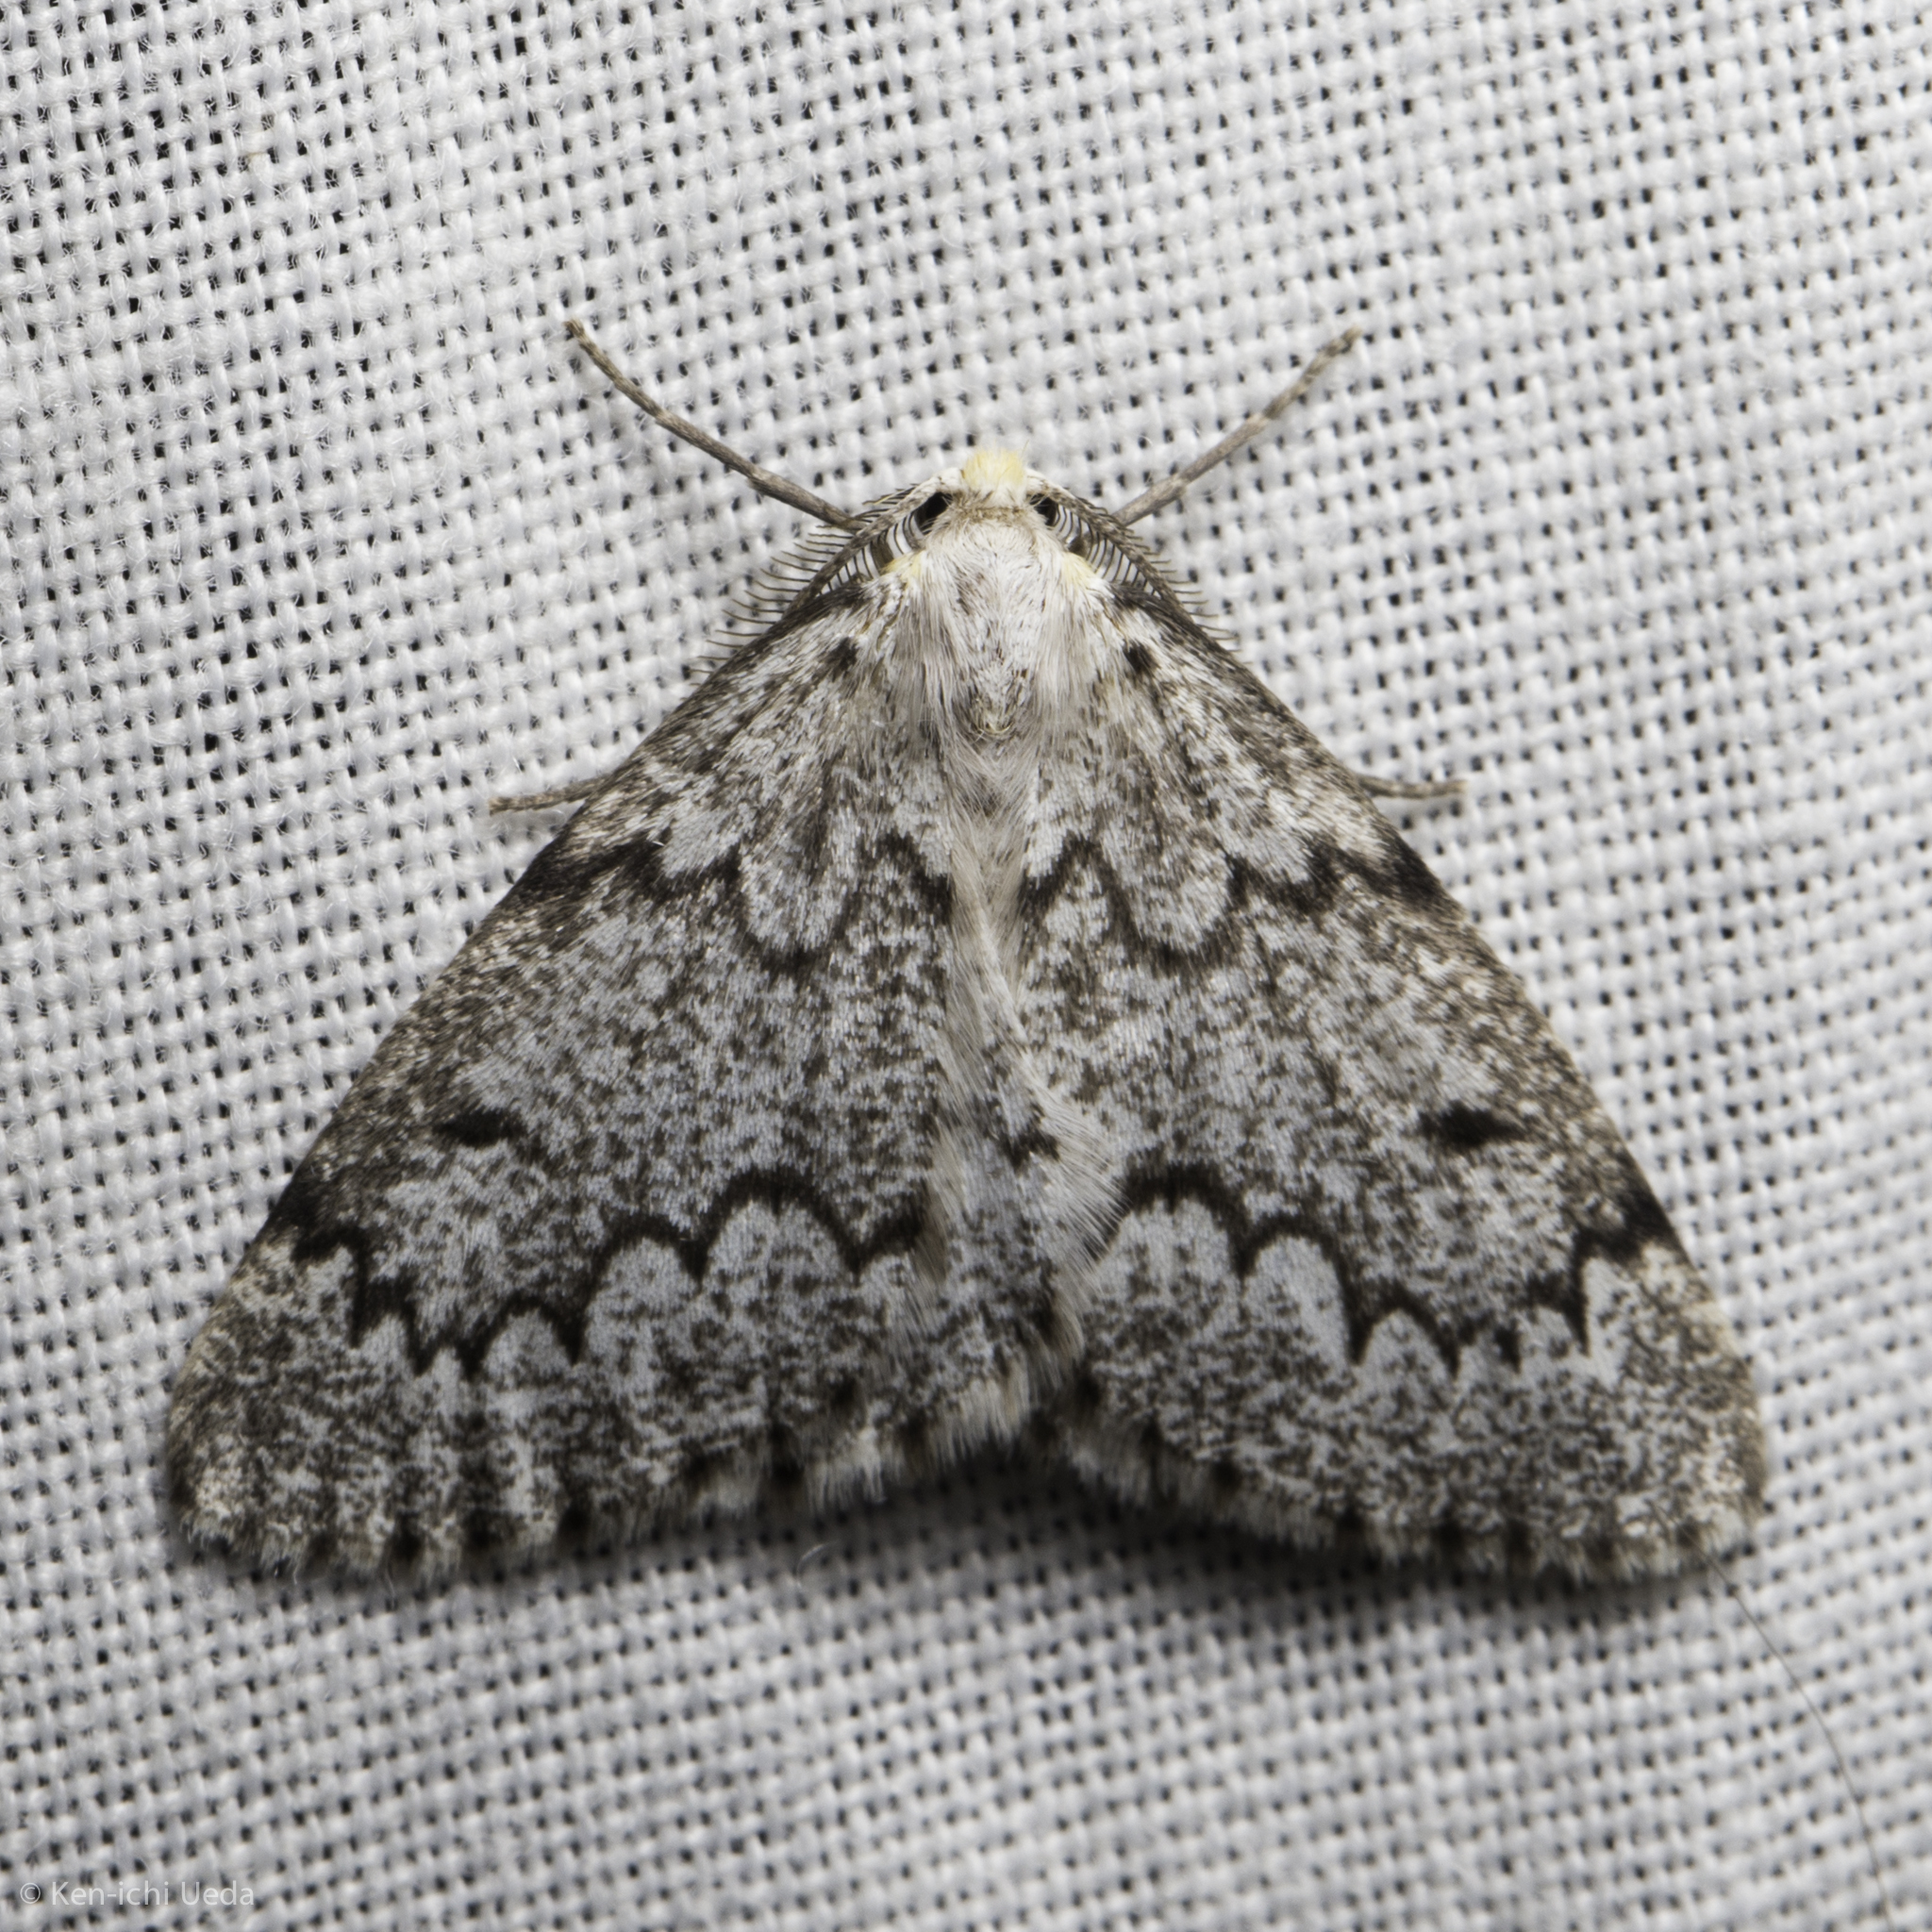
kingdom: Animalia
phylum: Arthropoda
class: Insecta
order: Lepidoptera
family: Geometridae
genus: Nepytia
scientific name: Nepytia canosaria
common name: False hemlock looper
